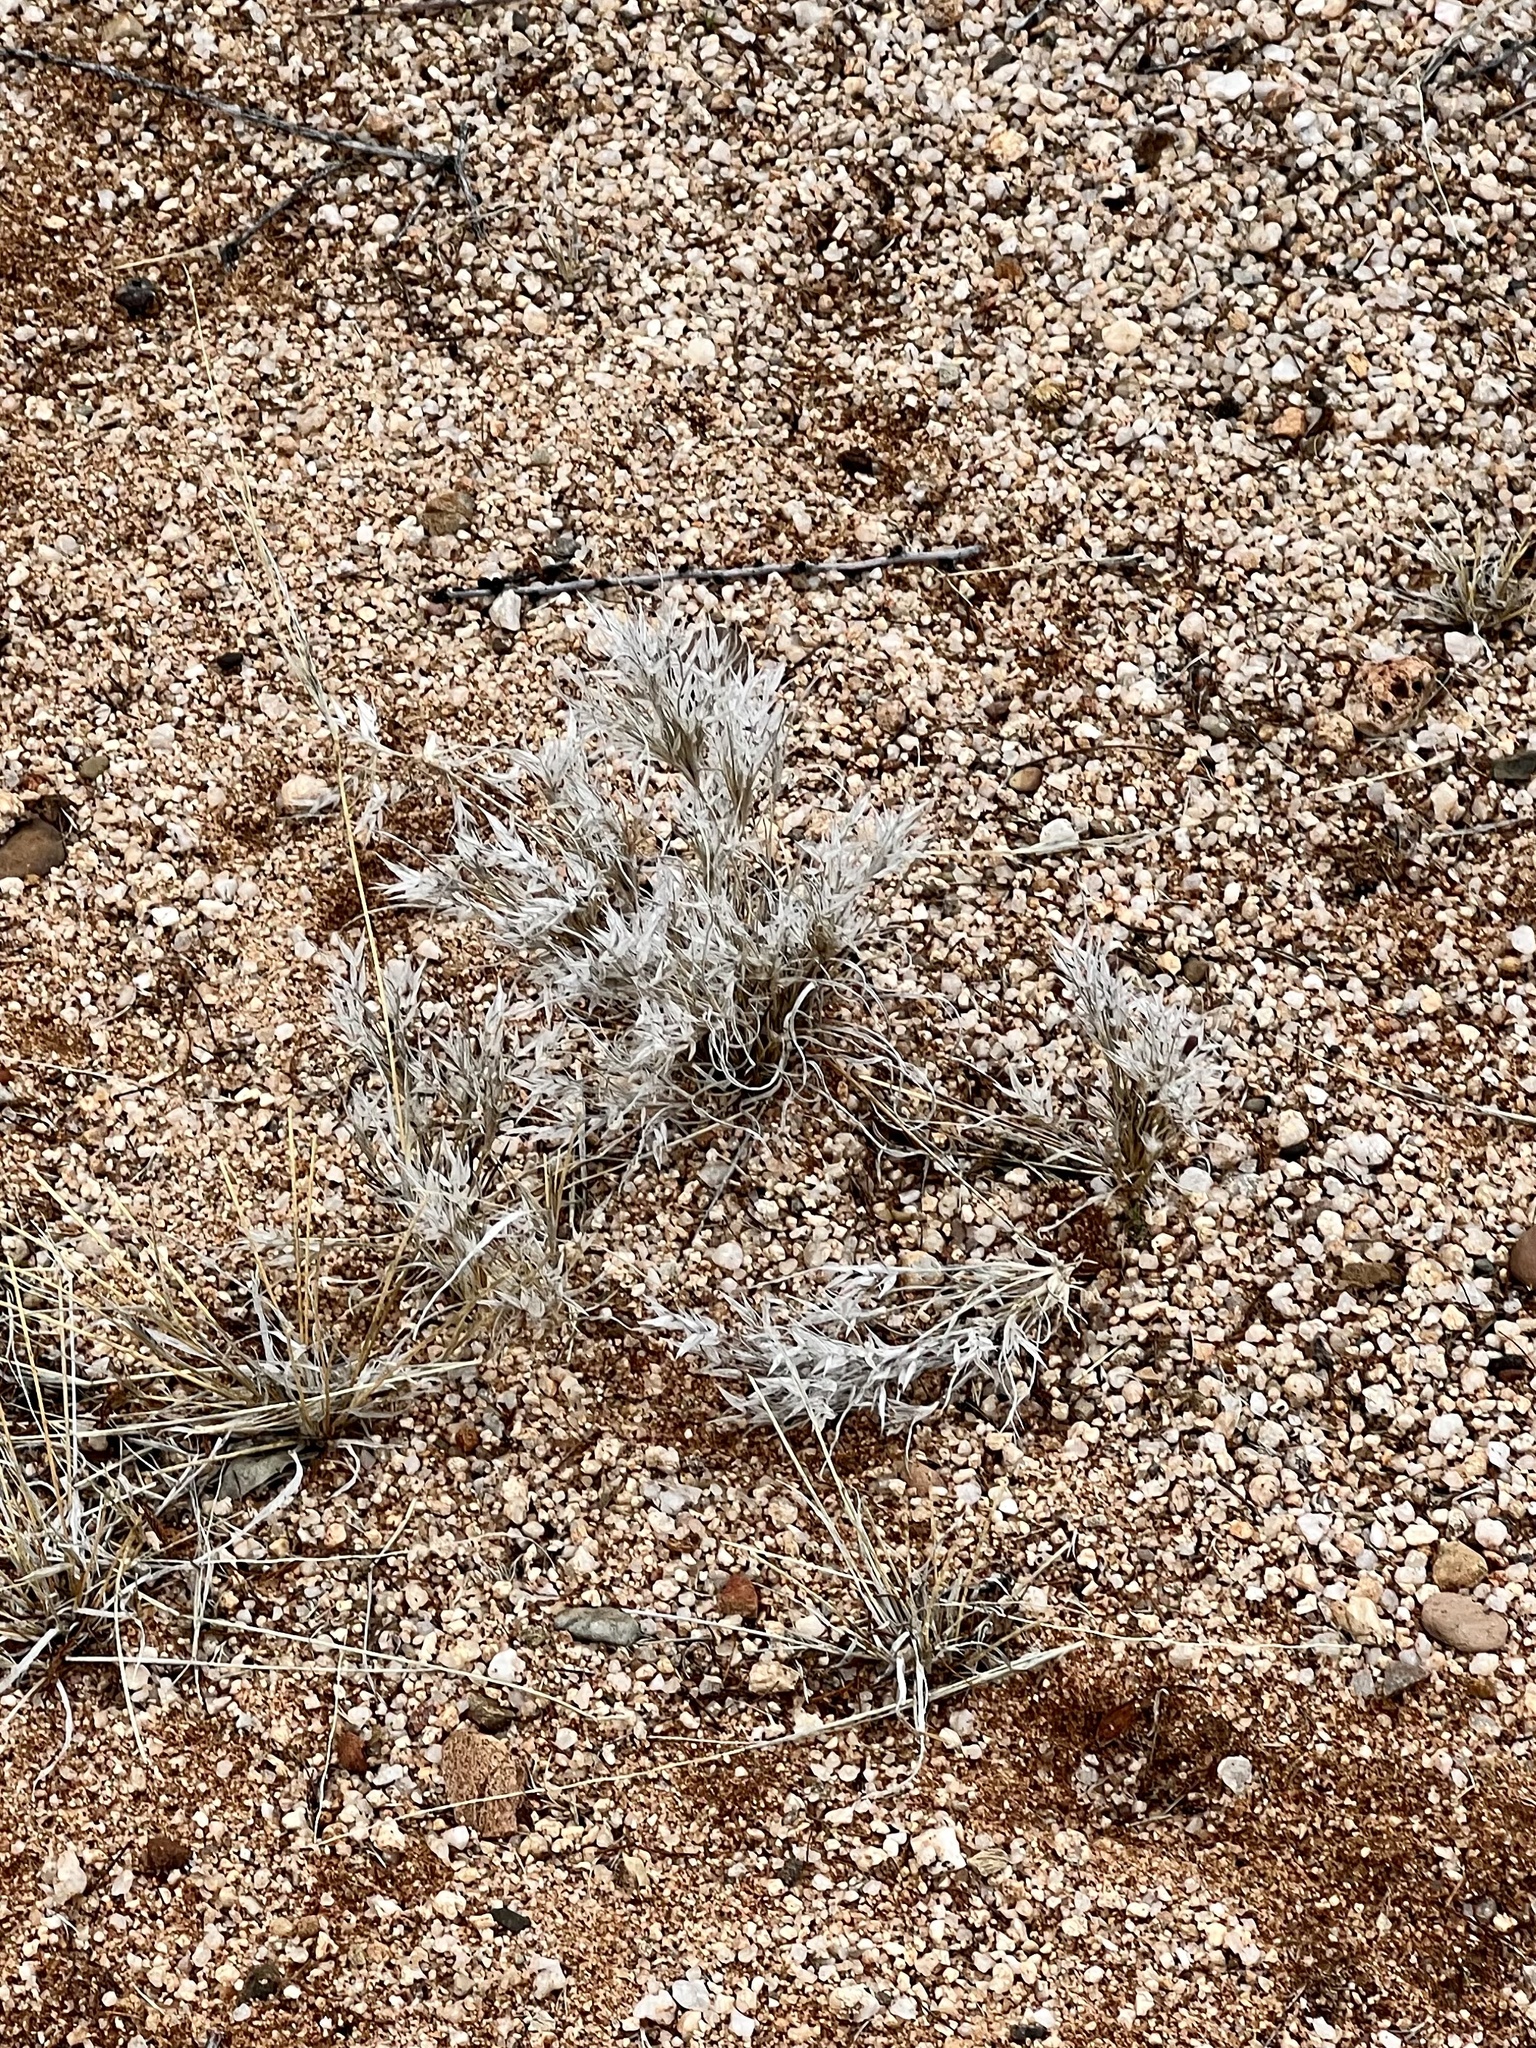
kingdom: Plantae
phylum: Tracheophyta
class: Liliopsida
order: Poales
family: Poaceae
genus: Dasyochloa
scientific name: Dasyochloa pulchella
